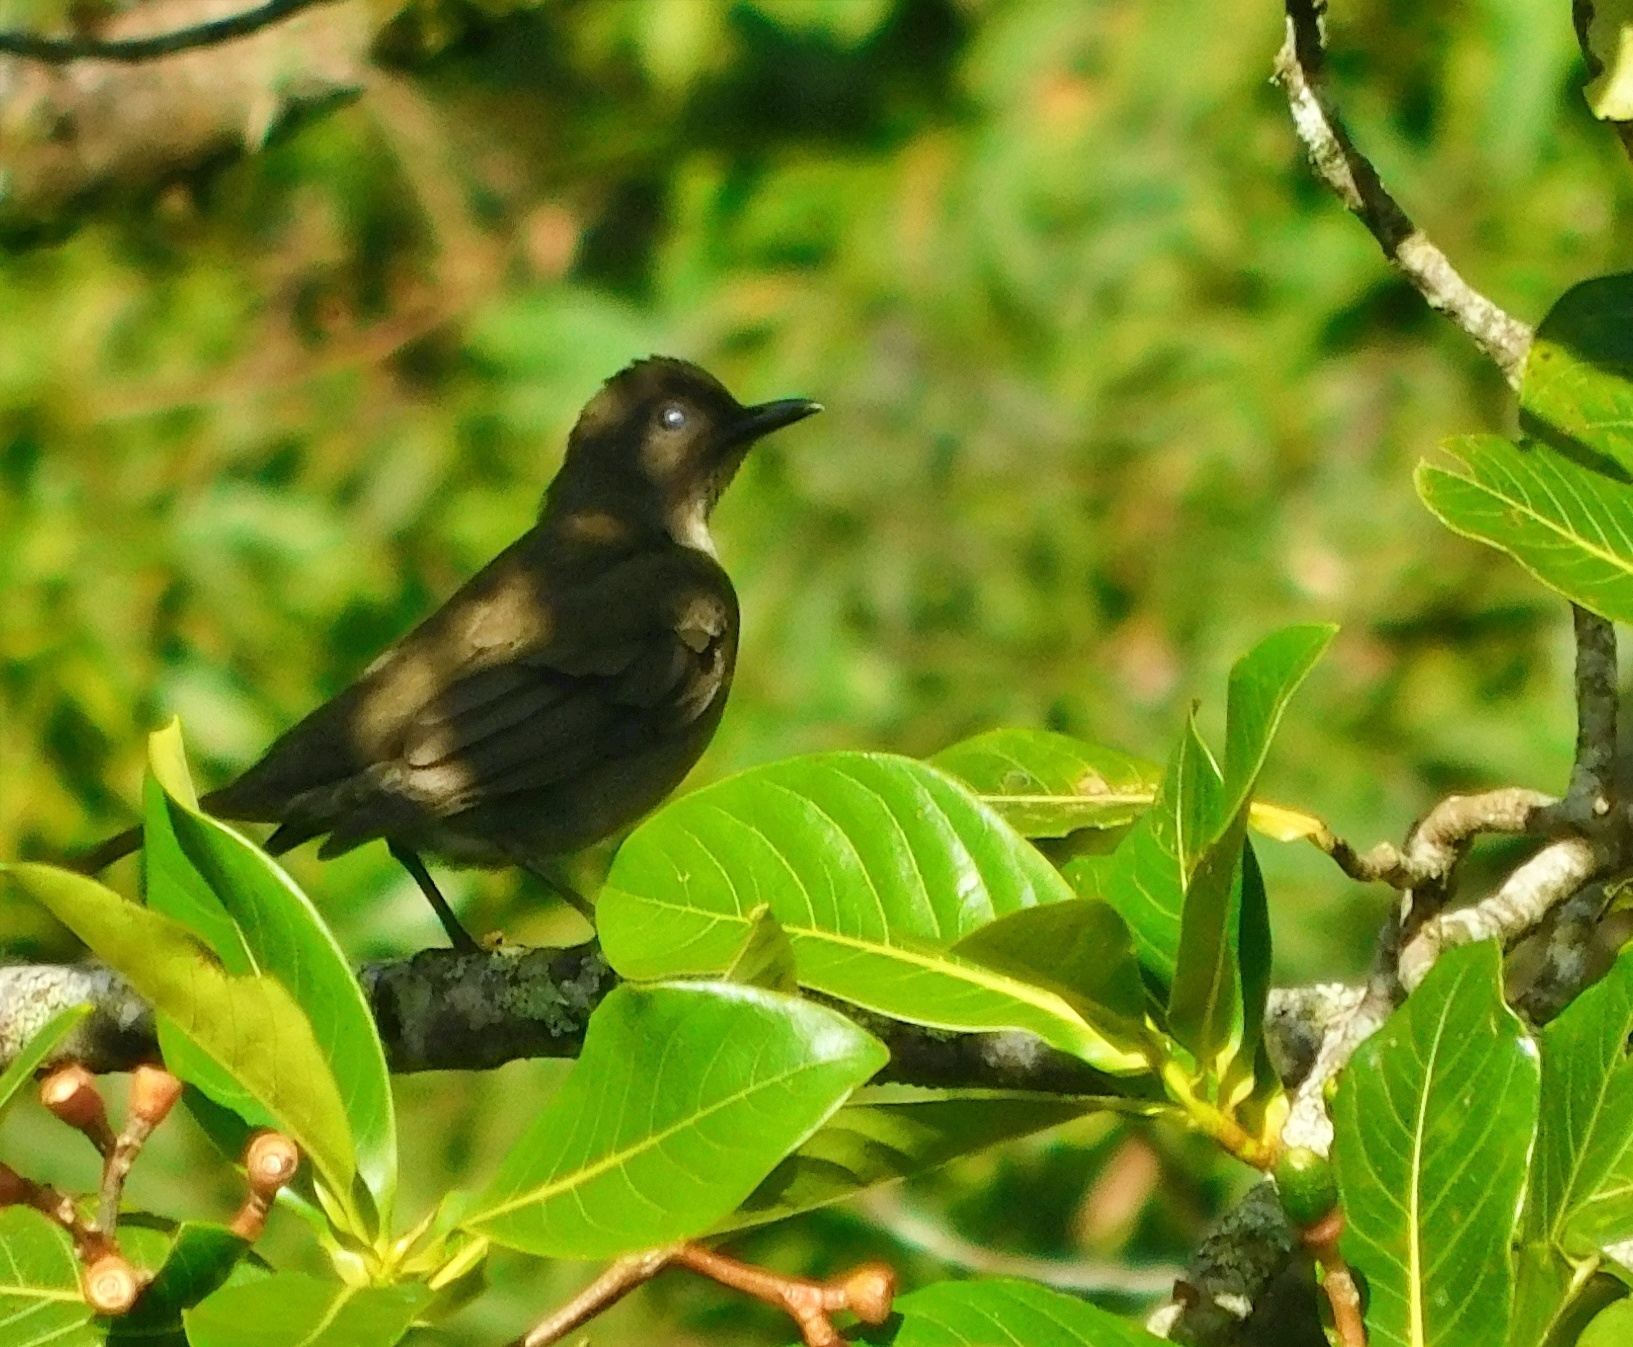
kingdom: Animalia
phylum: Chordata
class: Aves
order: Passeriformes
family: Turdidae
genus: Turdus
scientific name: Turdus plebejus
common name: Mountain thrush
